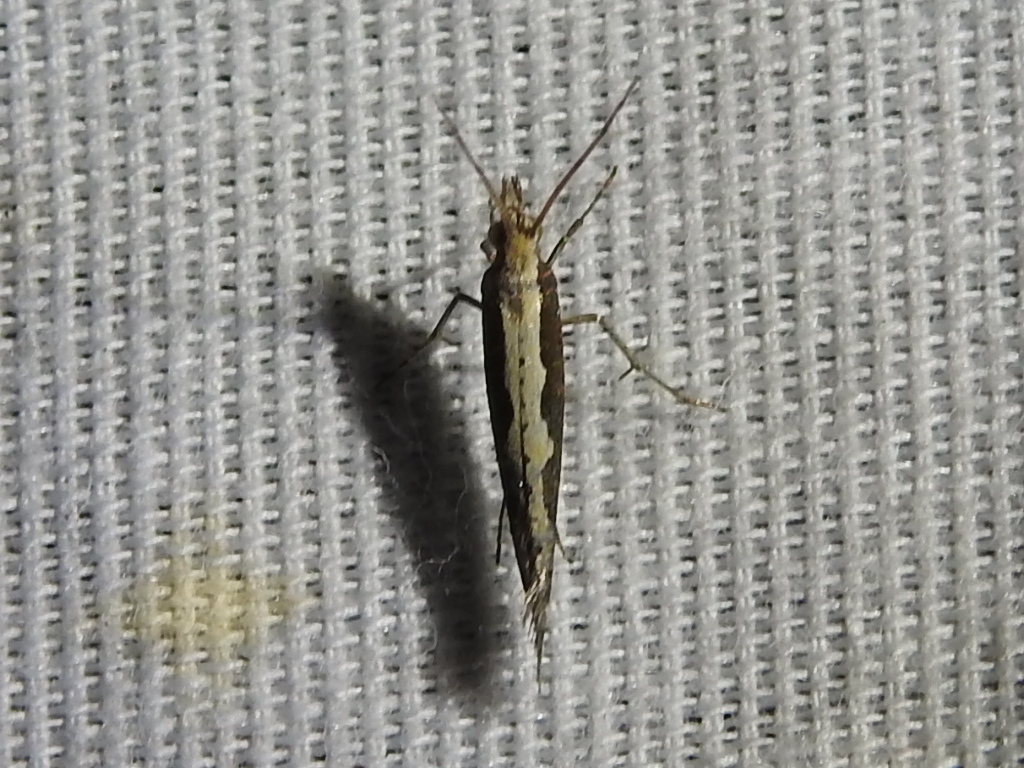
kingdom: Animalia
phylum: Arthropoda
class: Insecta
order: Lepidoptera
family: Plutellidae
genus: Plutella
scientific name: Plutella xylostella
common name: Diamond-back moth
